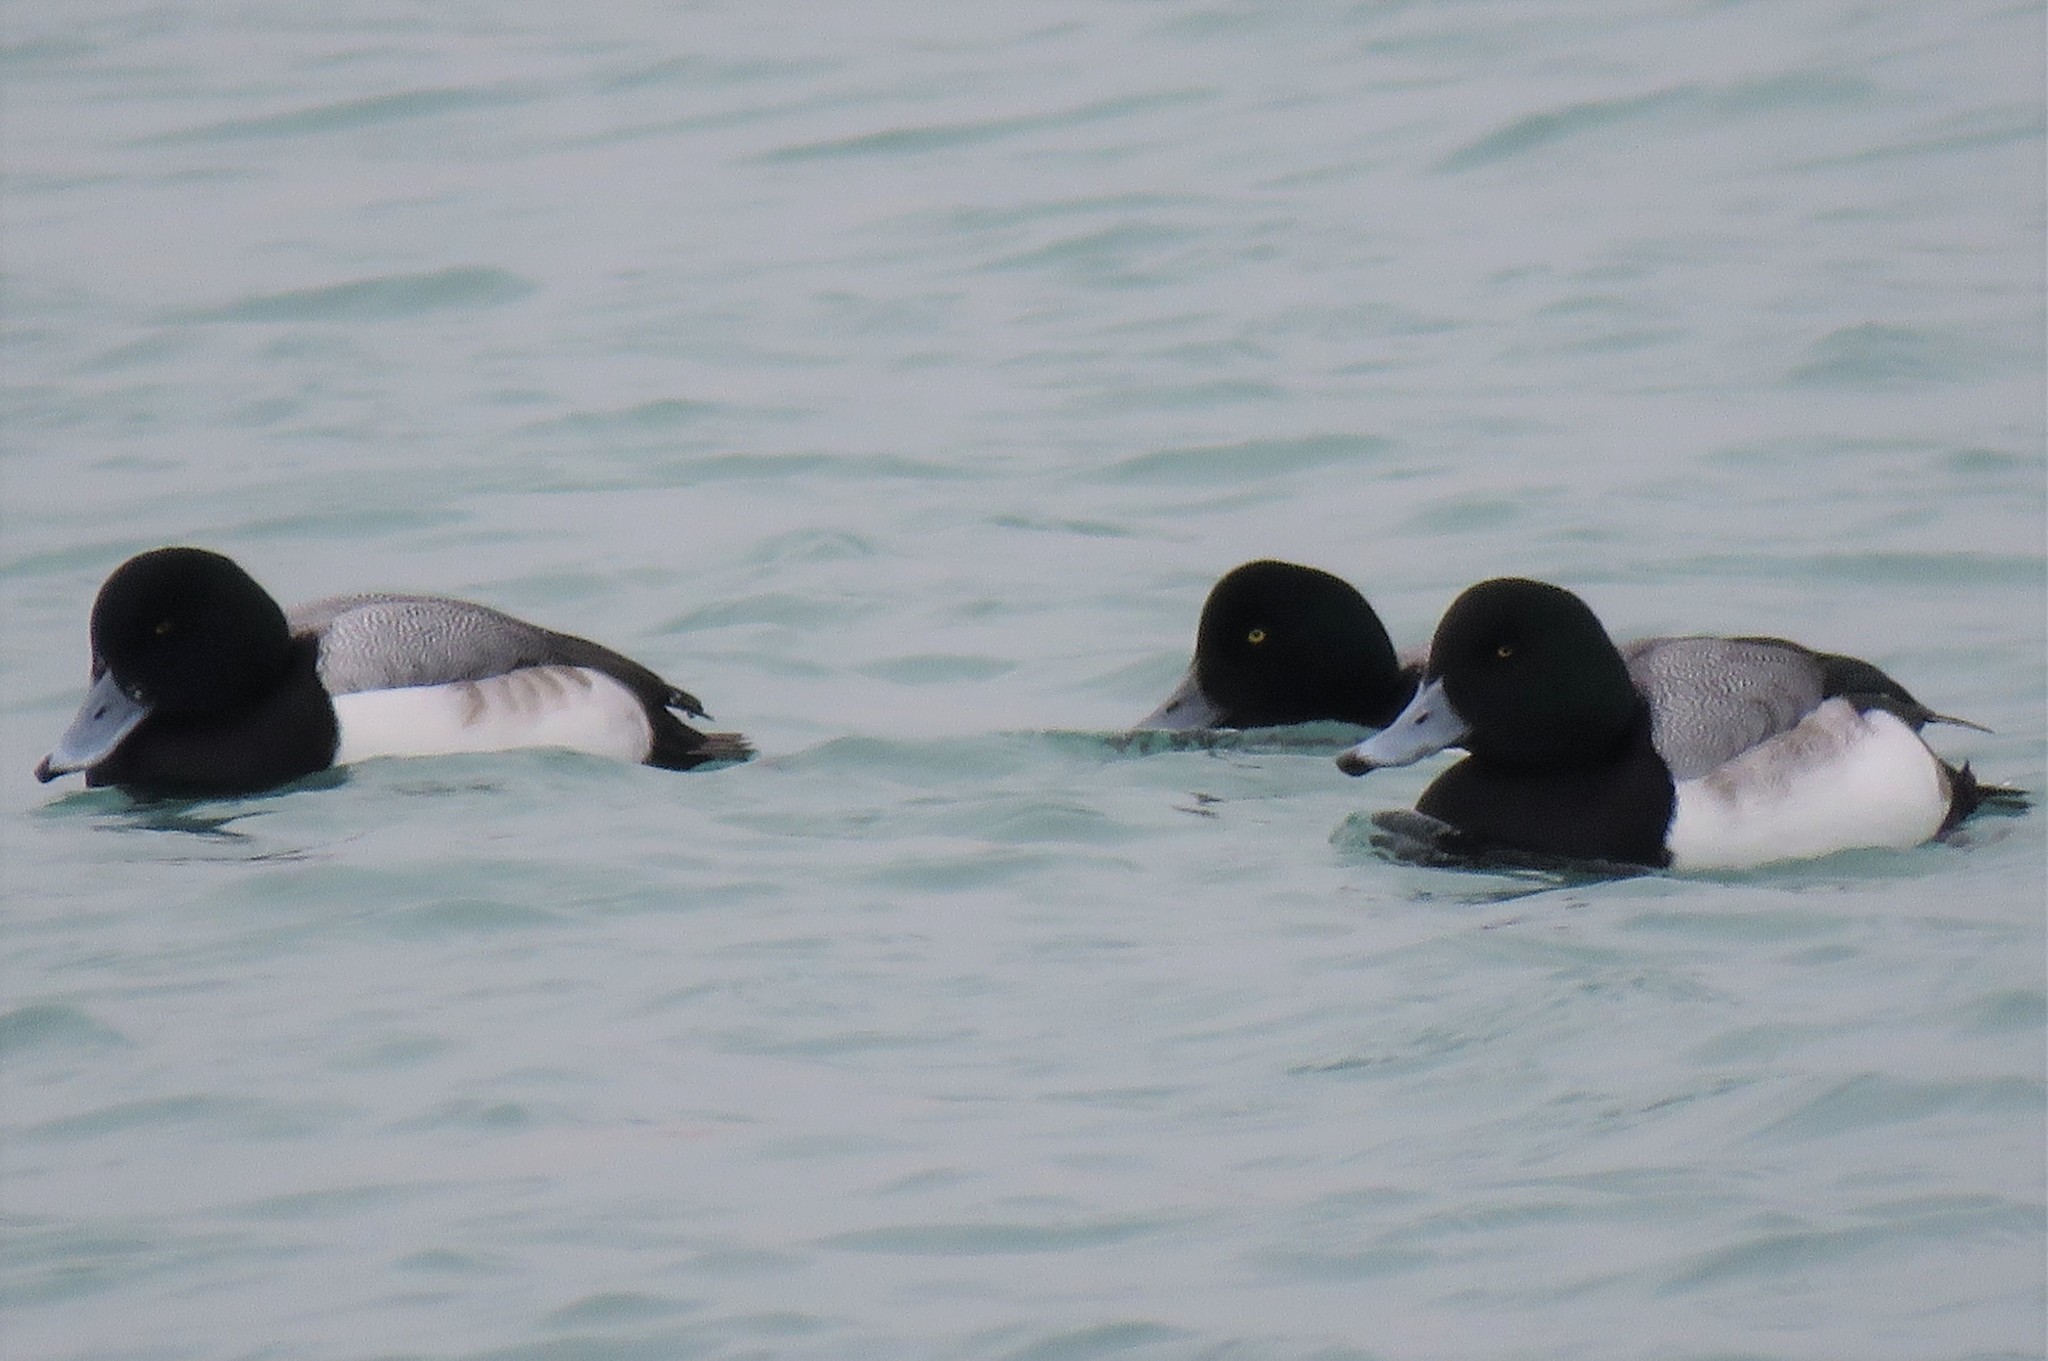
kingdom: Animalia
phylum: Chordata
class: Aves
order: Anseriformes
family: Anatidae
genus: Aythya
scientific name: Aythya marila
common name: Greater scaup
